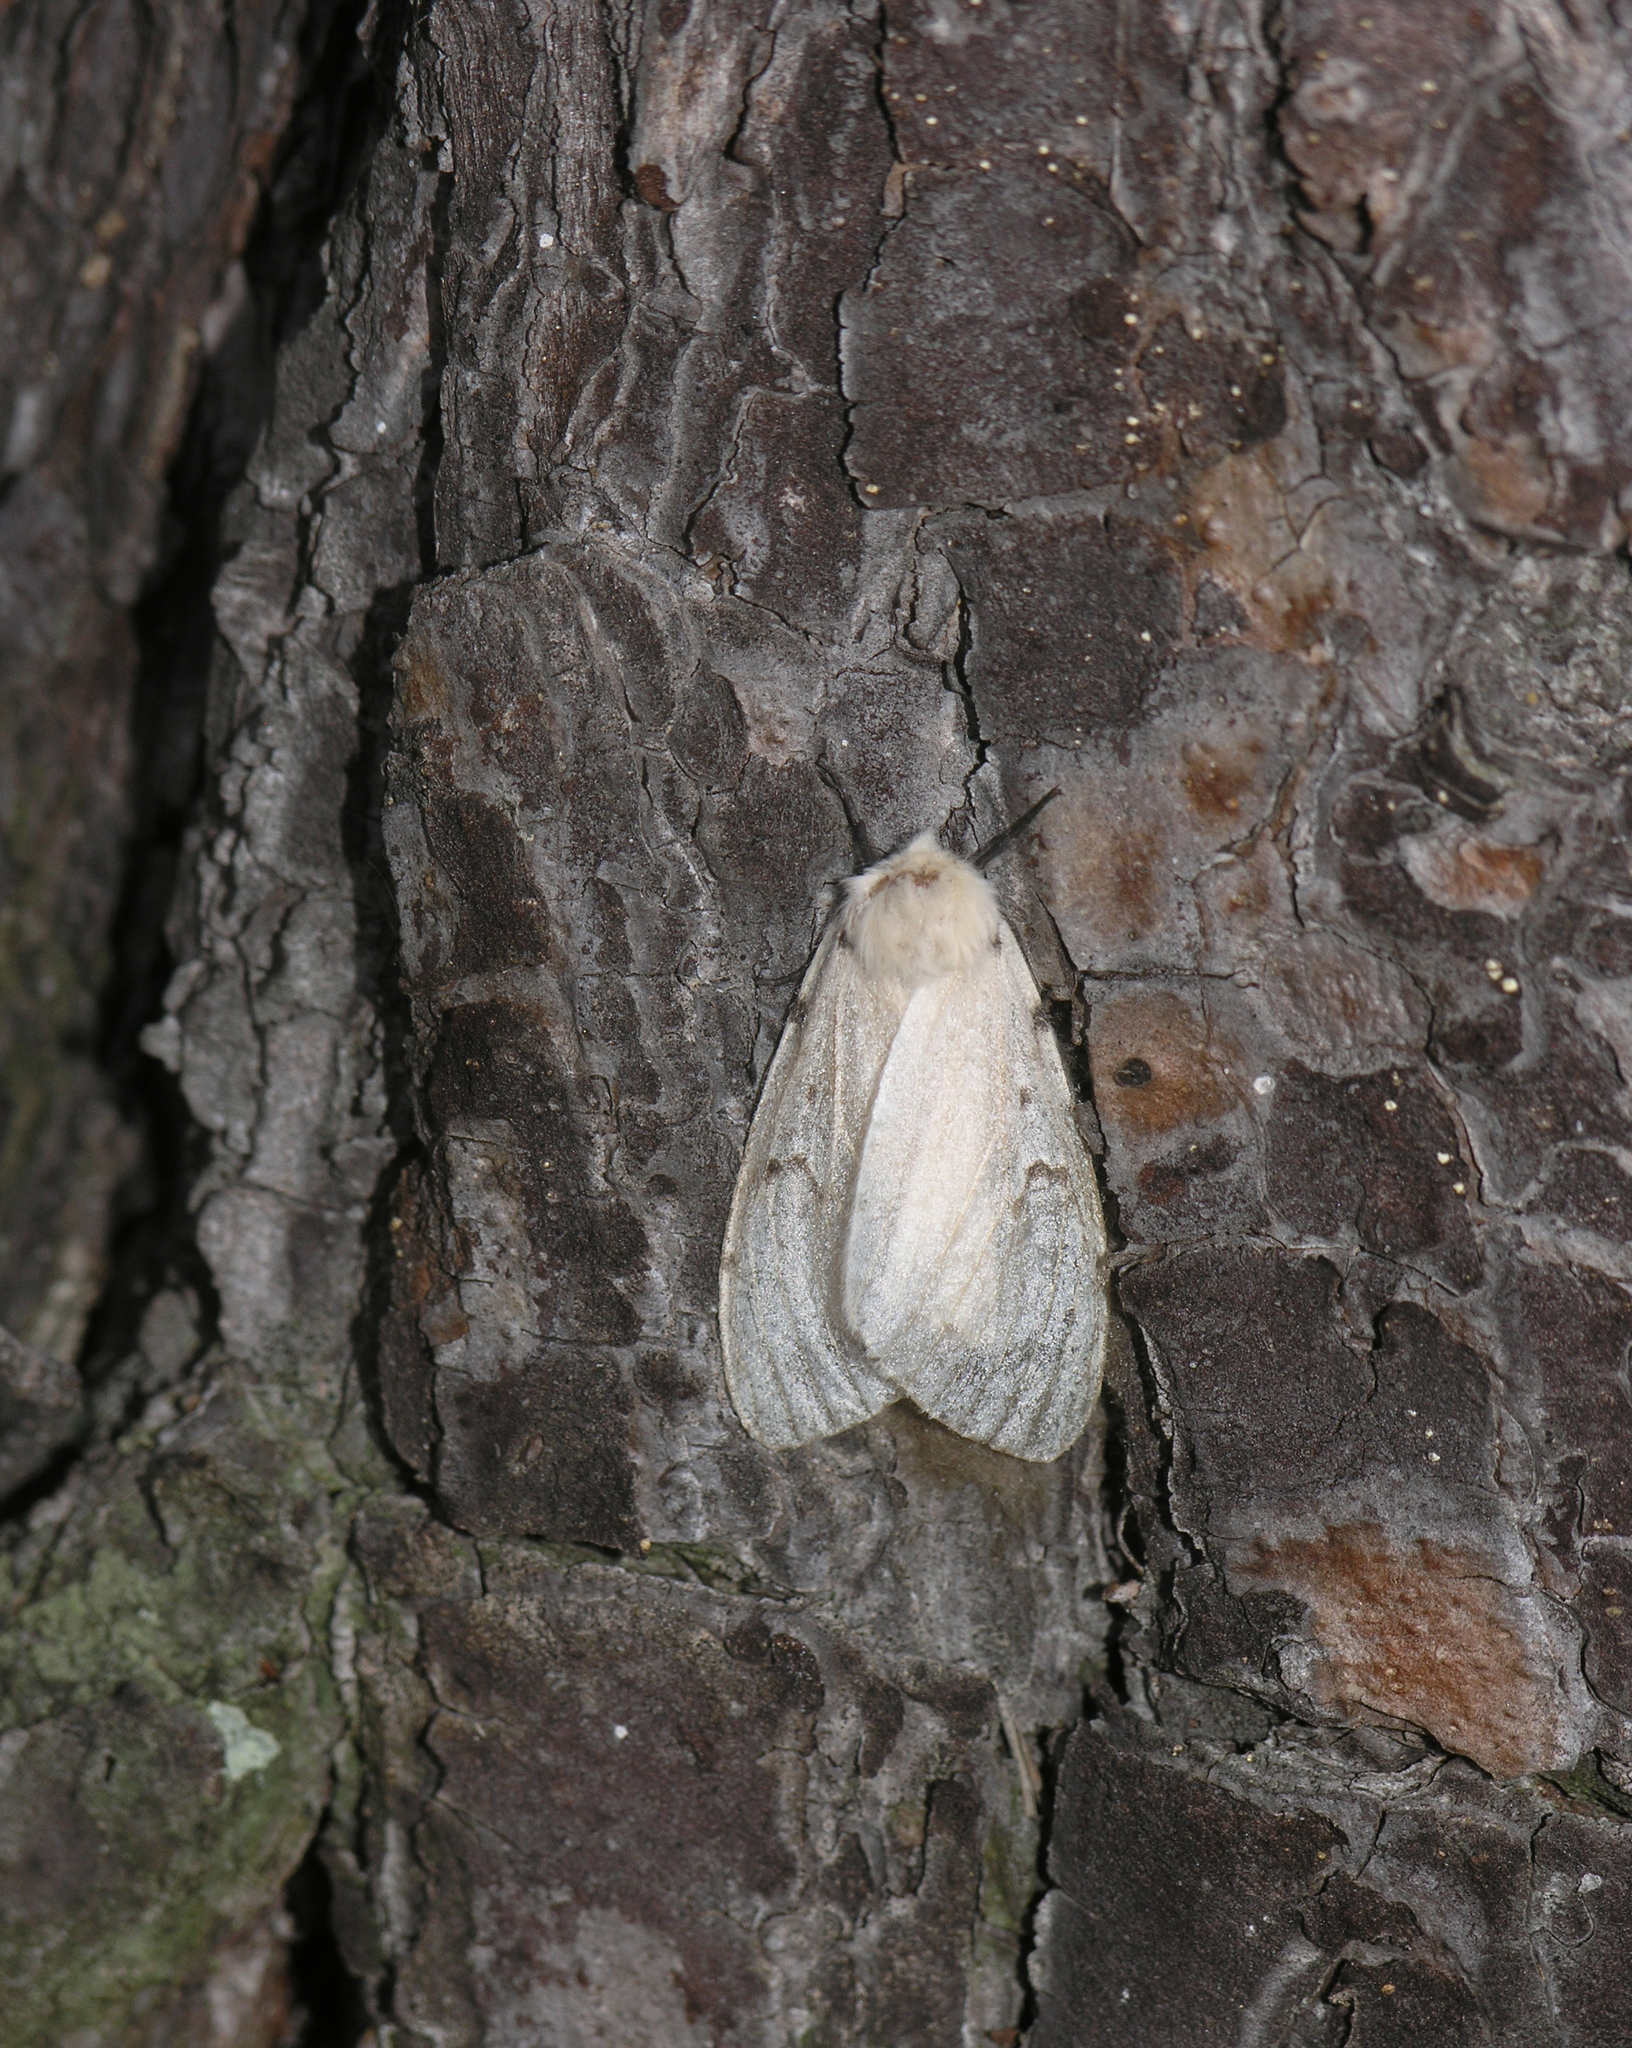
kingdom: Animalia
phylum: Arthropoda
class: Insecta
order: Lepidoptera
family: Erebidae
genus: Lymantria
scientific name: Lymantria dispar
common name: Gypsy moth
